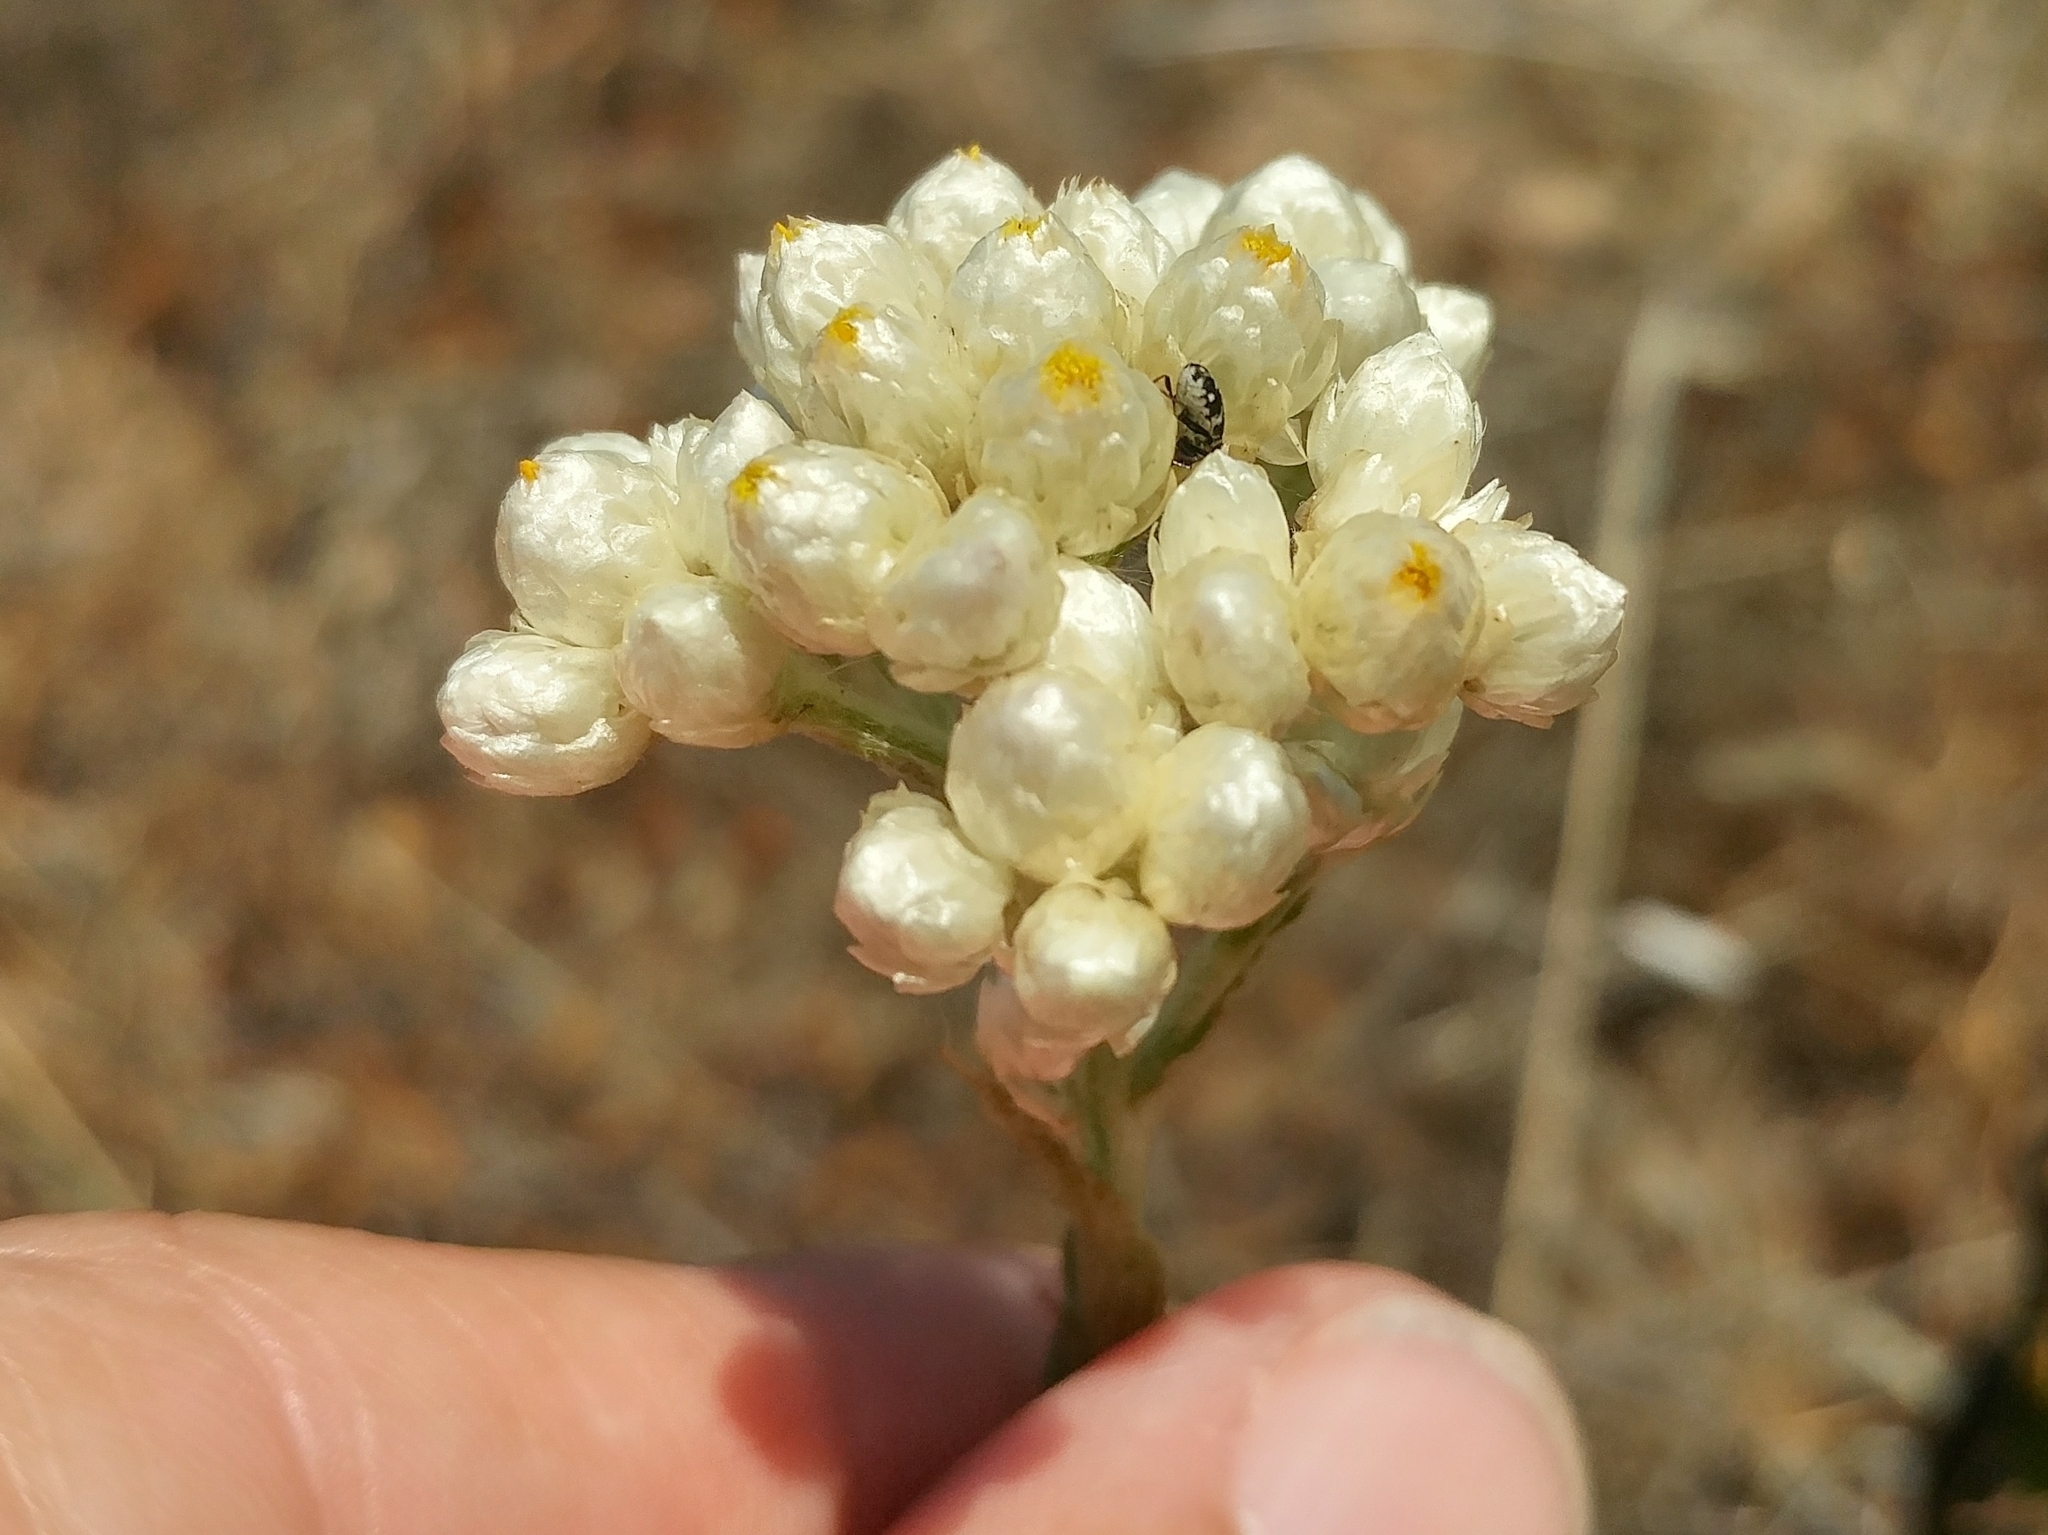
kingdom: Plantae
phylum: Tracheophyta
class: Magnoliopsida
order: Asterales
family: Asteraceae
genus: Pseudognaphalium
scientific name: Pseudognaphalium californicum
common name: California rabbit-tobacco
